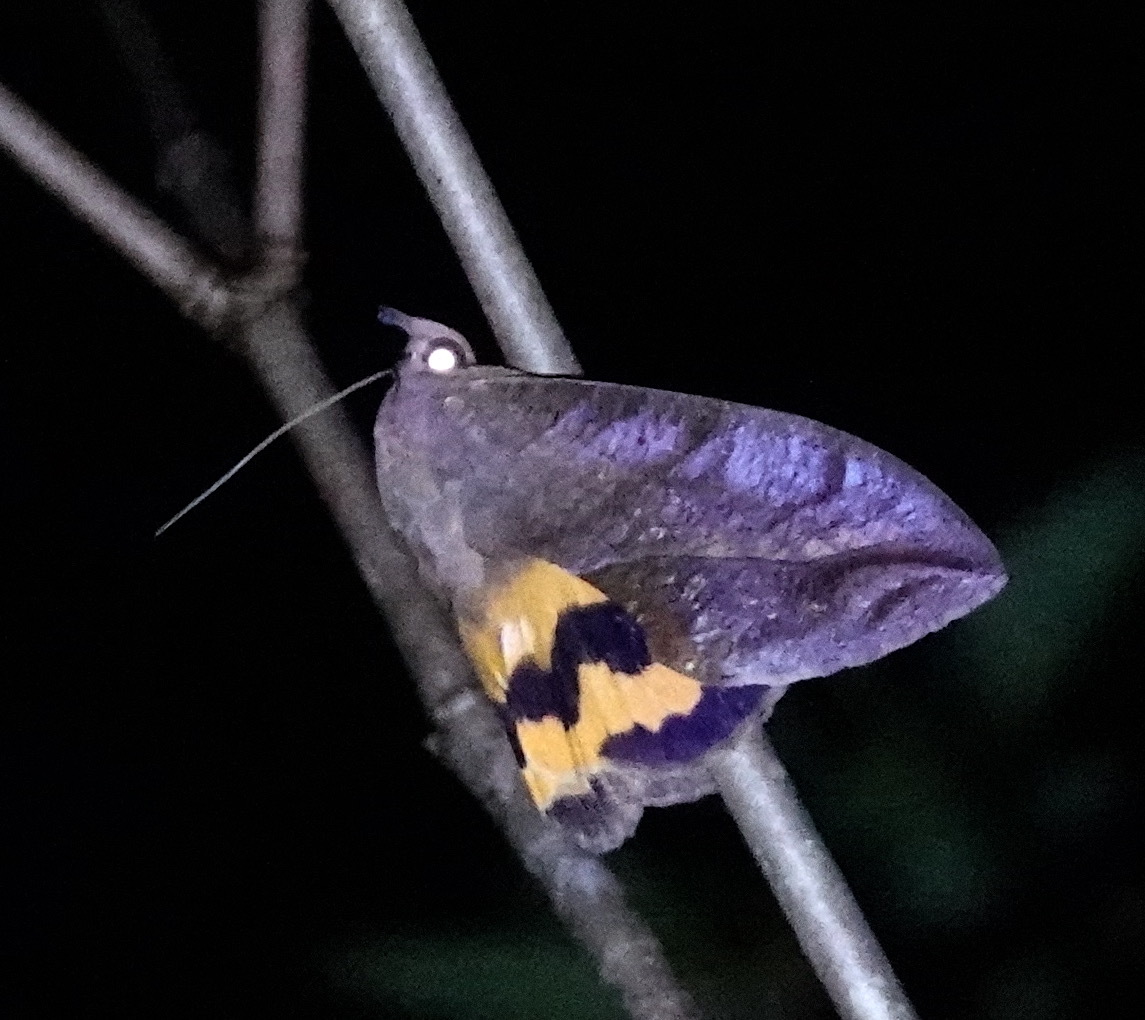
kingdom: Animalia
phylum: Arthropoda
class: Insecta
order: Lepidoptera
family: Erebidae
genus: Eudocima
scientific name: Eudocima serpentifera
